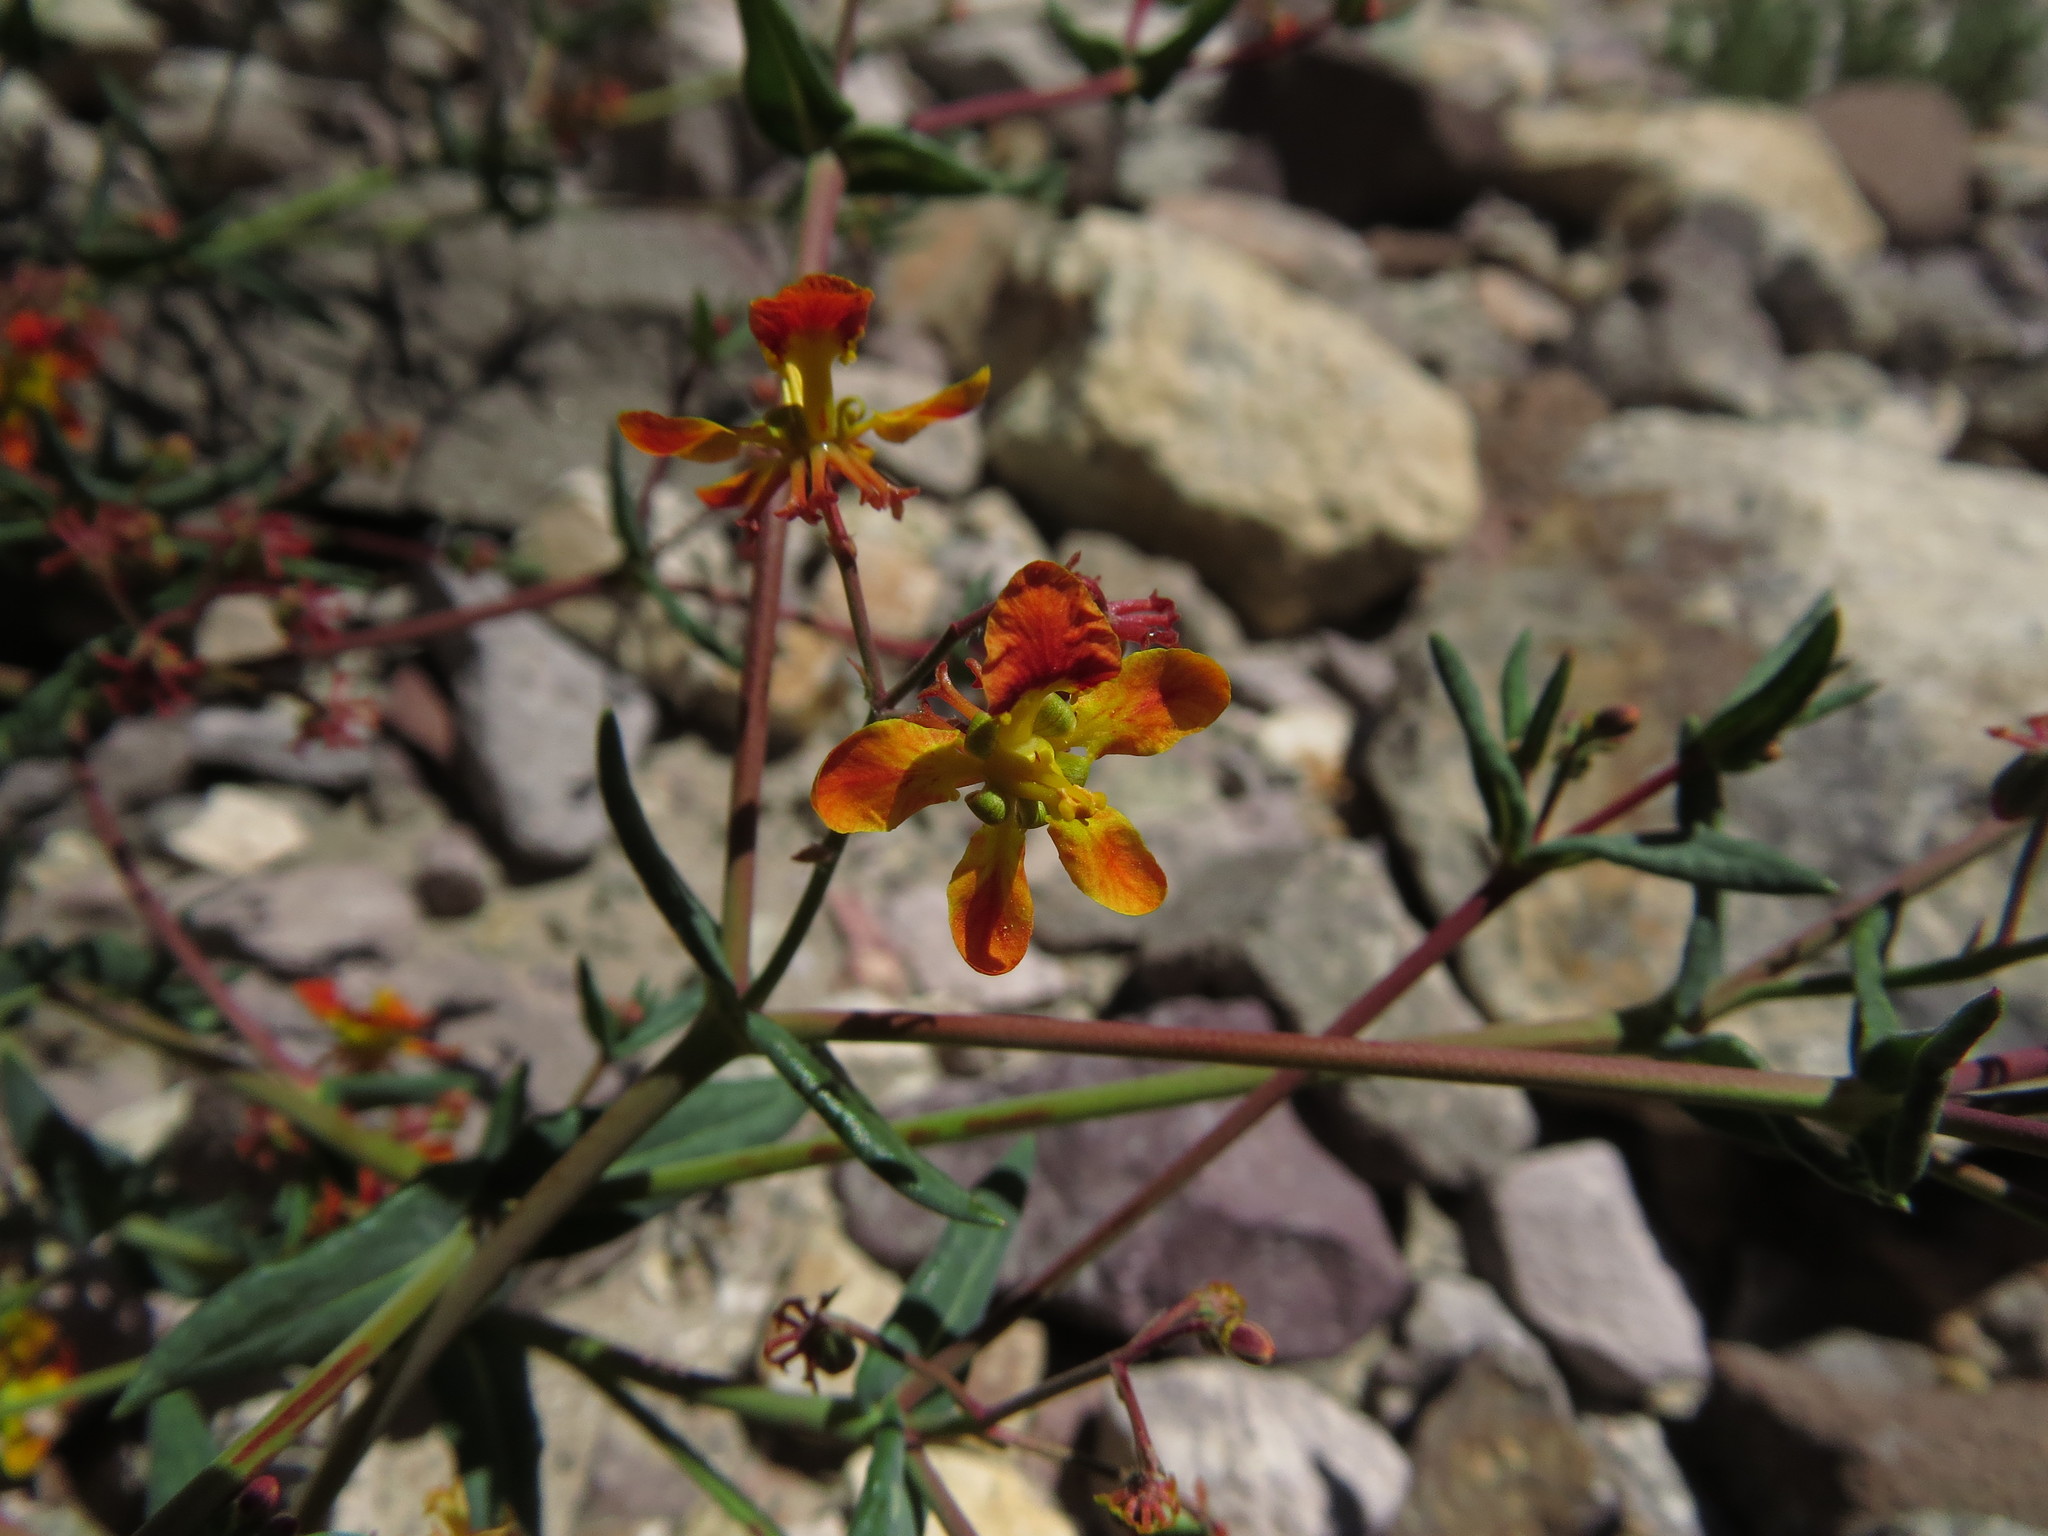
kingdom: Plantae
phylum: Tracheophyta
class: Magnoliopsida
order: Malpighiales
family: Malpighiaceae
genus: Dinemandra
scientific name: Dinemandra ericoides
